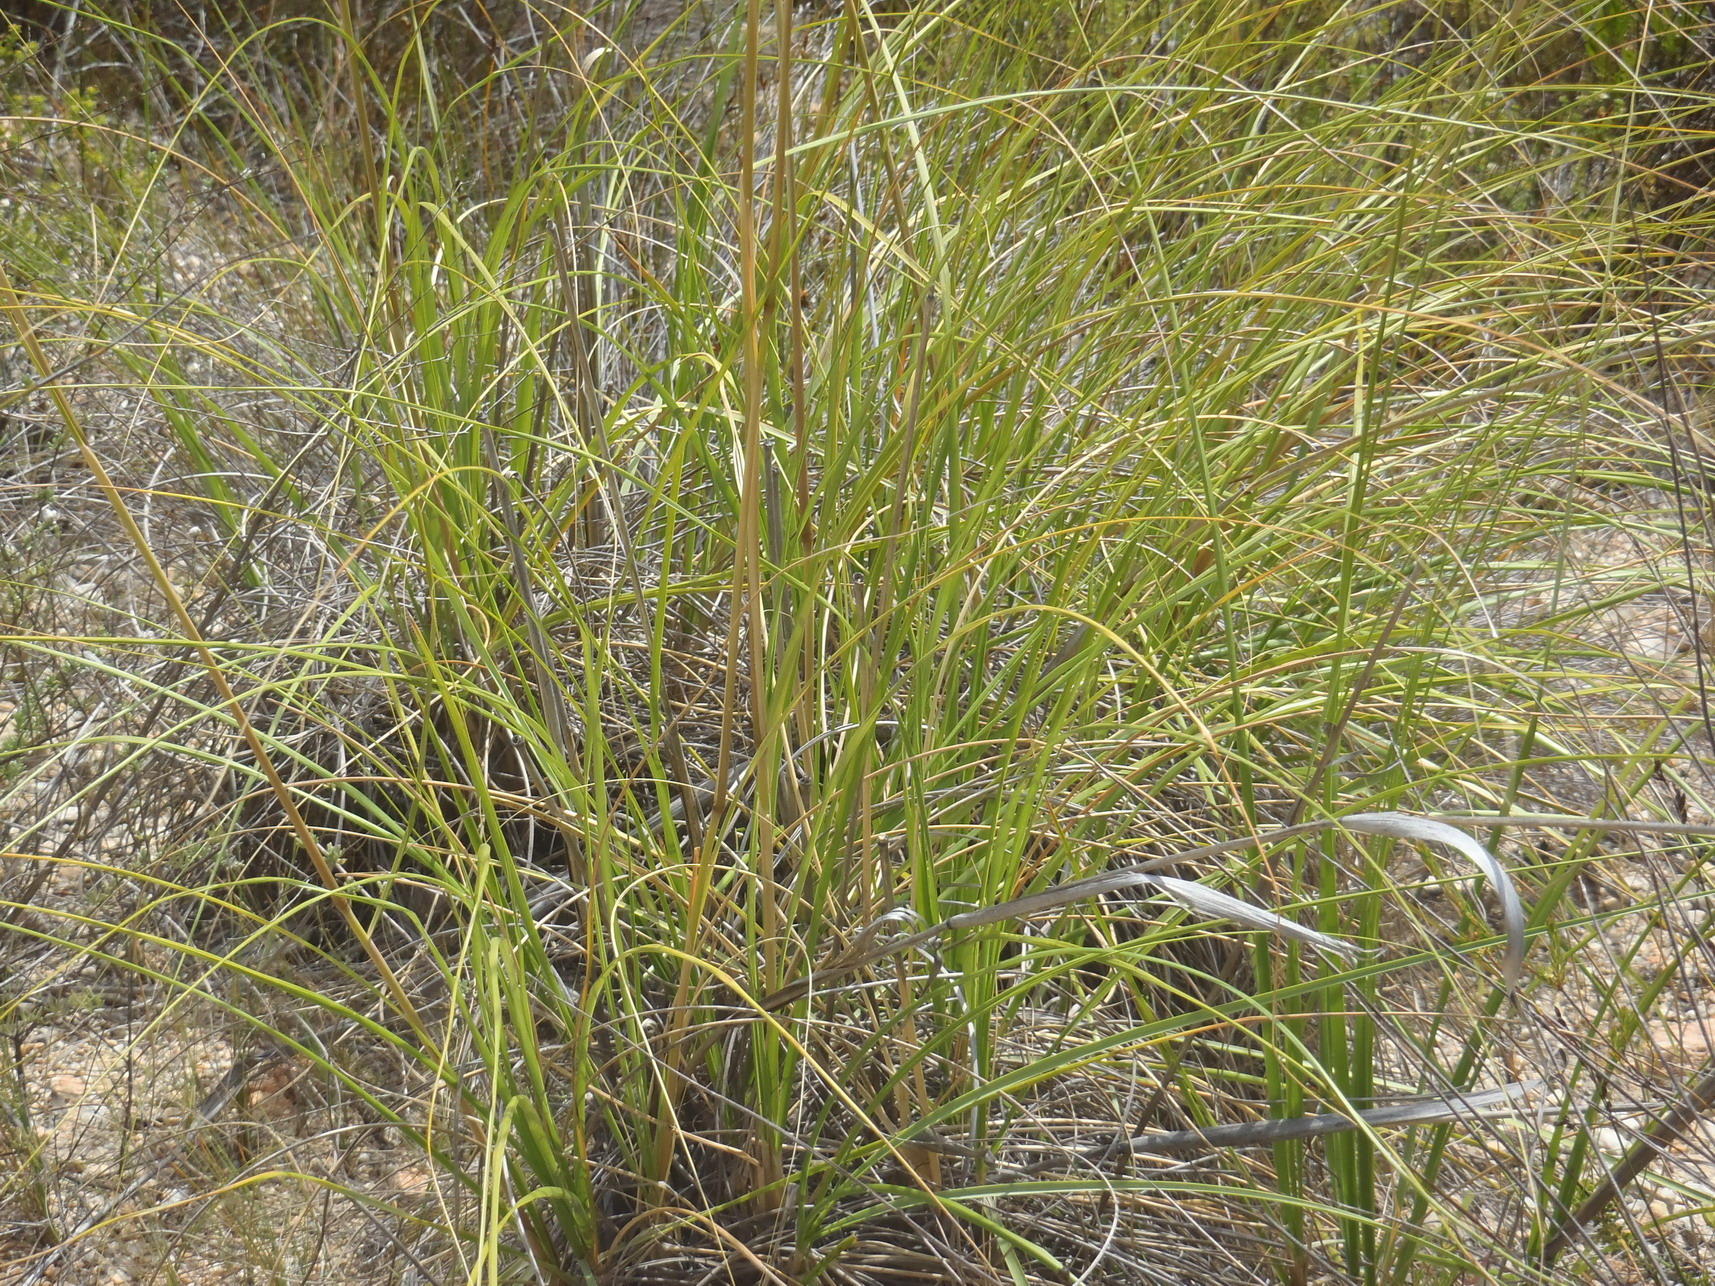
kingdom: Plantae
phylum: Tracheophyta
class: Liliopsida
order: Poales
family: Poaceae
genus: Capeochloa
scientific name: Capeochloa arundinacea
